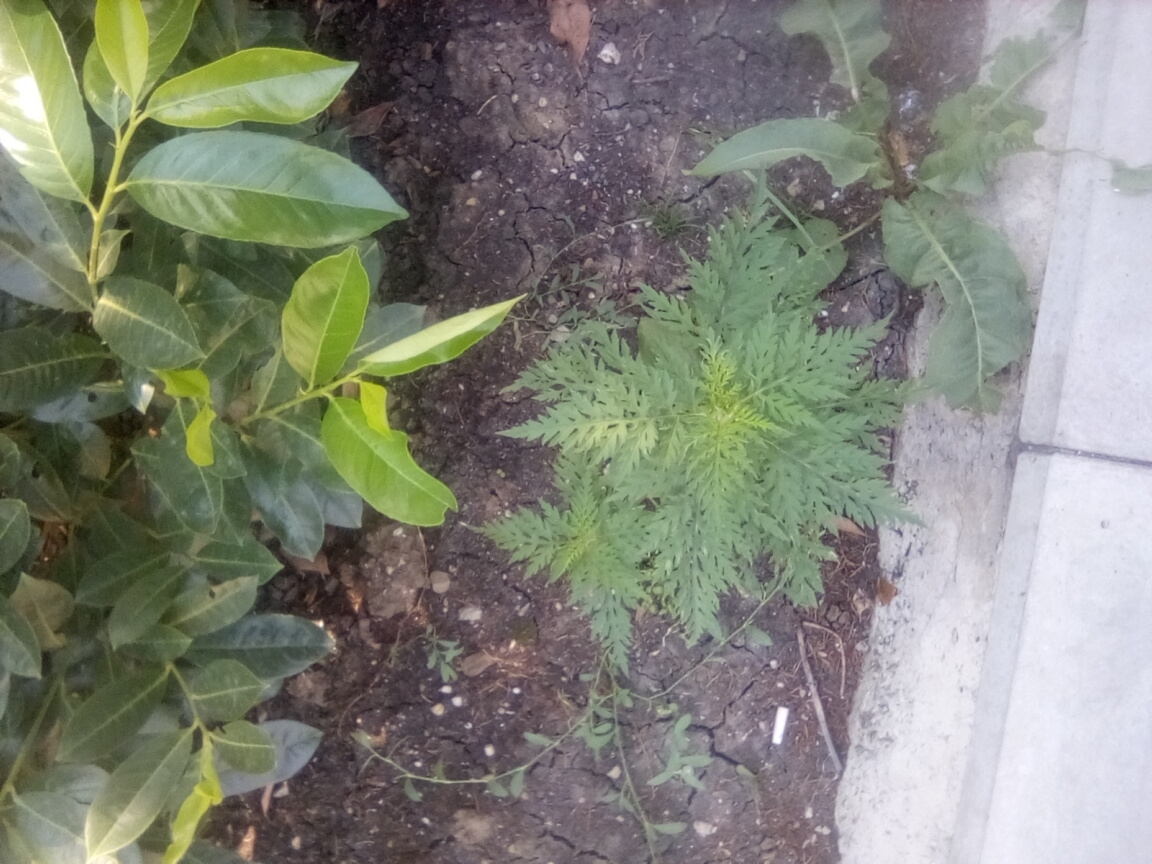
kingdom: Plantae
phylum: Tracheophyta
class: Magnoliopsida
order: Asterales
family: Asteraceae
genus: Ambrosia
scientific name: Ambrosia artemisiifolia
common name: Annual ragweed
